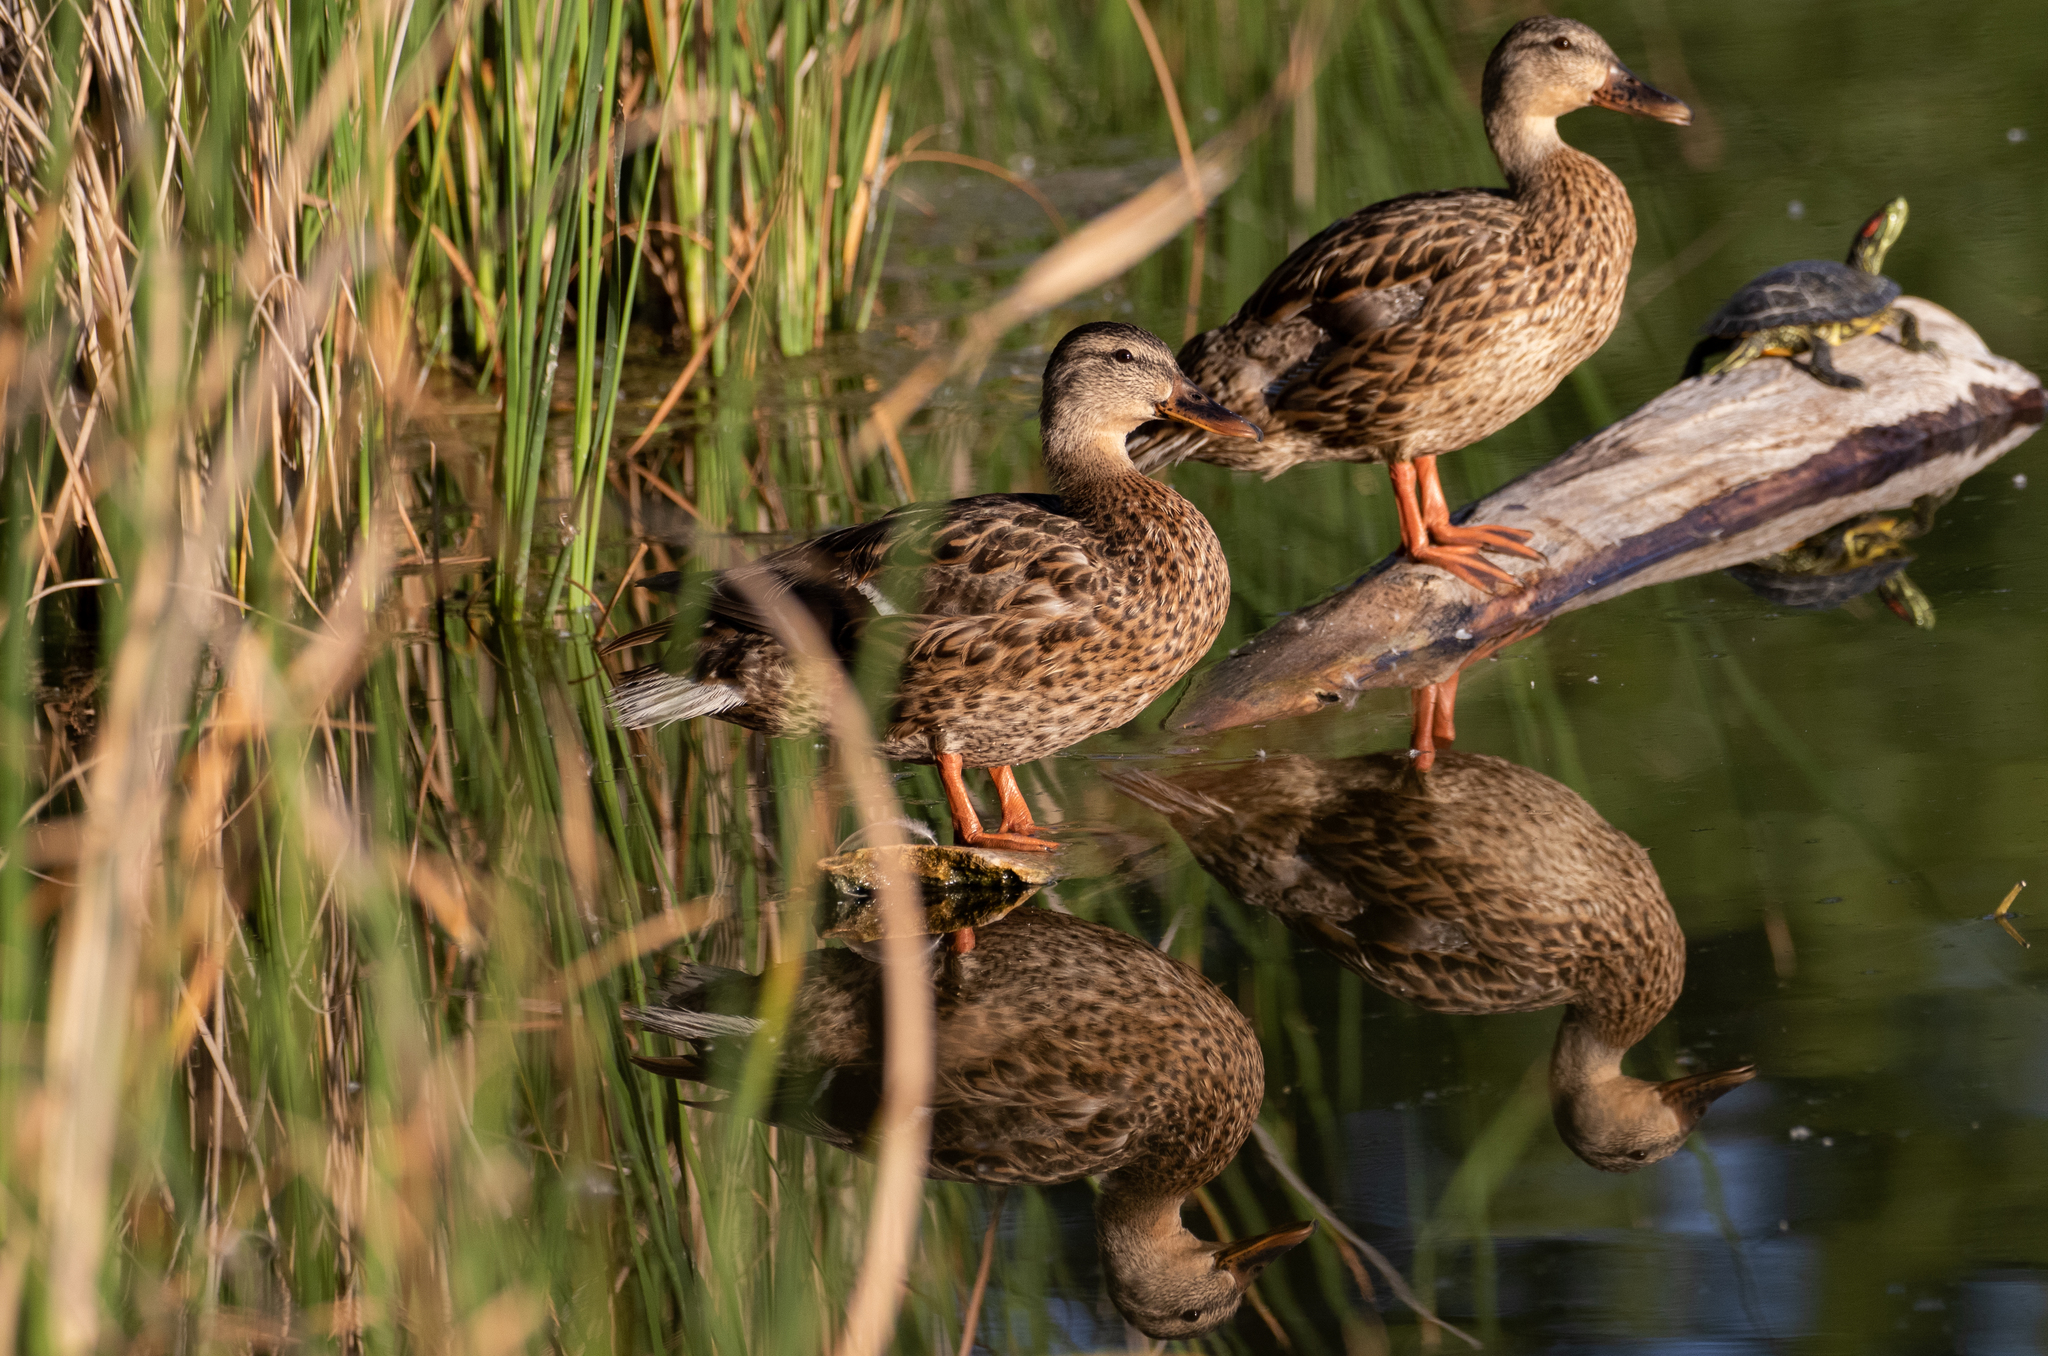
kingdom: Animalia
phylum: Chordata
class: Aves
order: Anseriformes
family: Anatidae
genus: Anas
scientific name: Anas platyrhynchos
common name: Mallard
